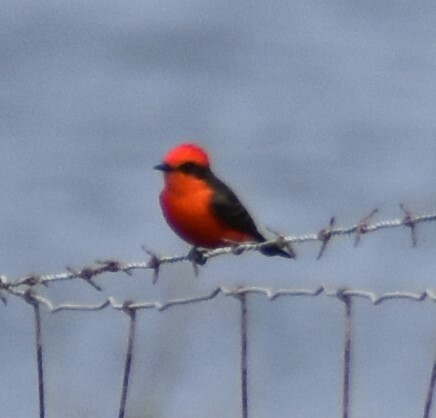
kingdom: Animalia
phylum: Chordata
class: Aves
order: Passeriformes
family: Tyrannidae
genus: Pyrocephalus
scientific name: Pyrocephalus rubinus
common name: Vermilion flycatcher
